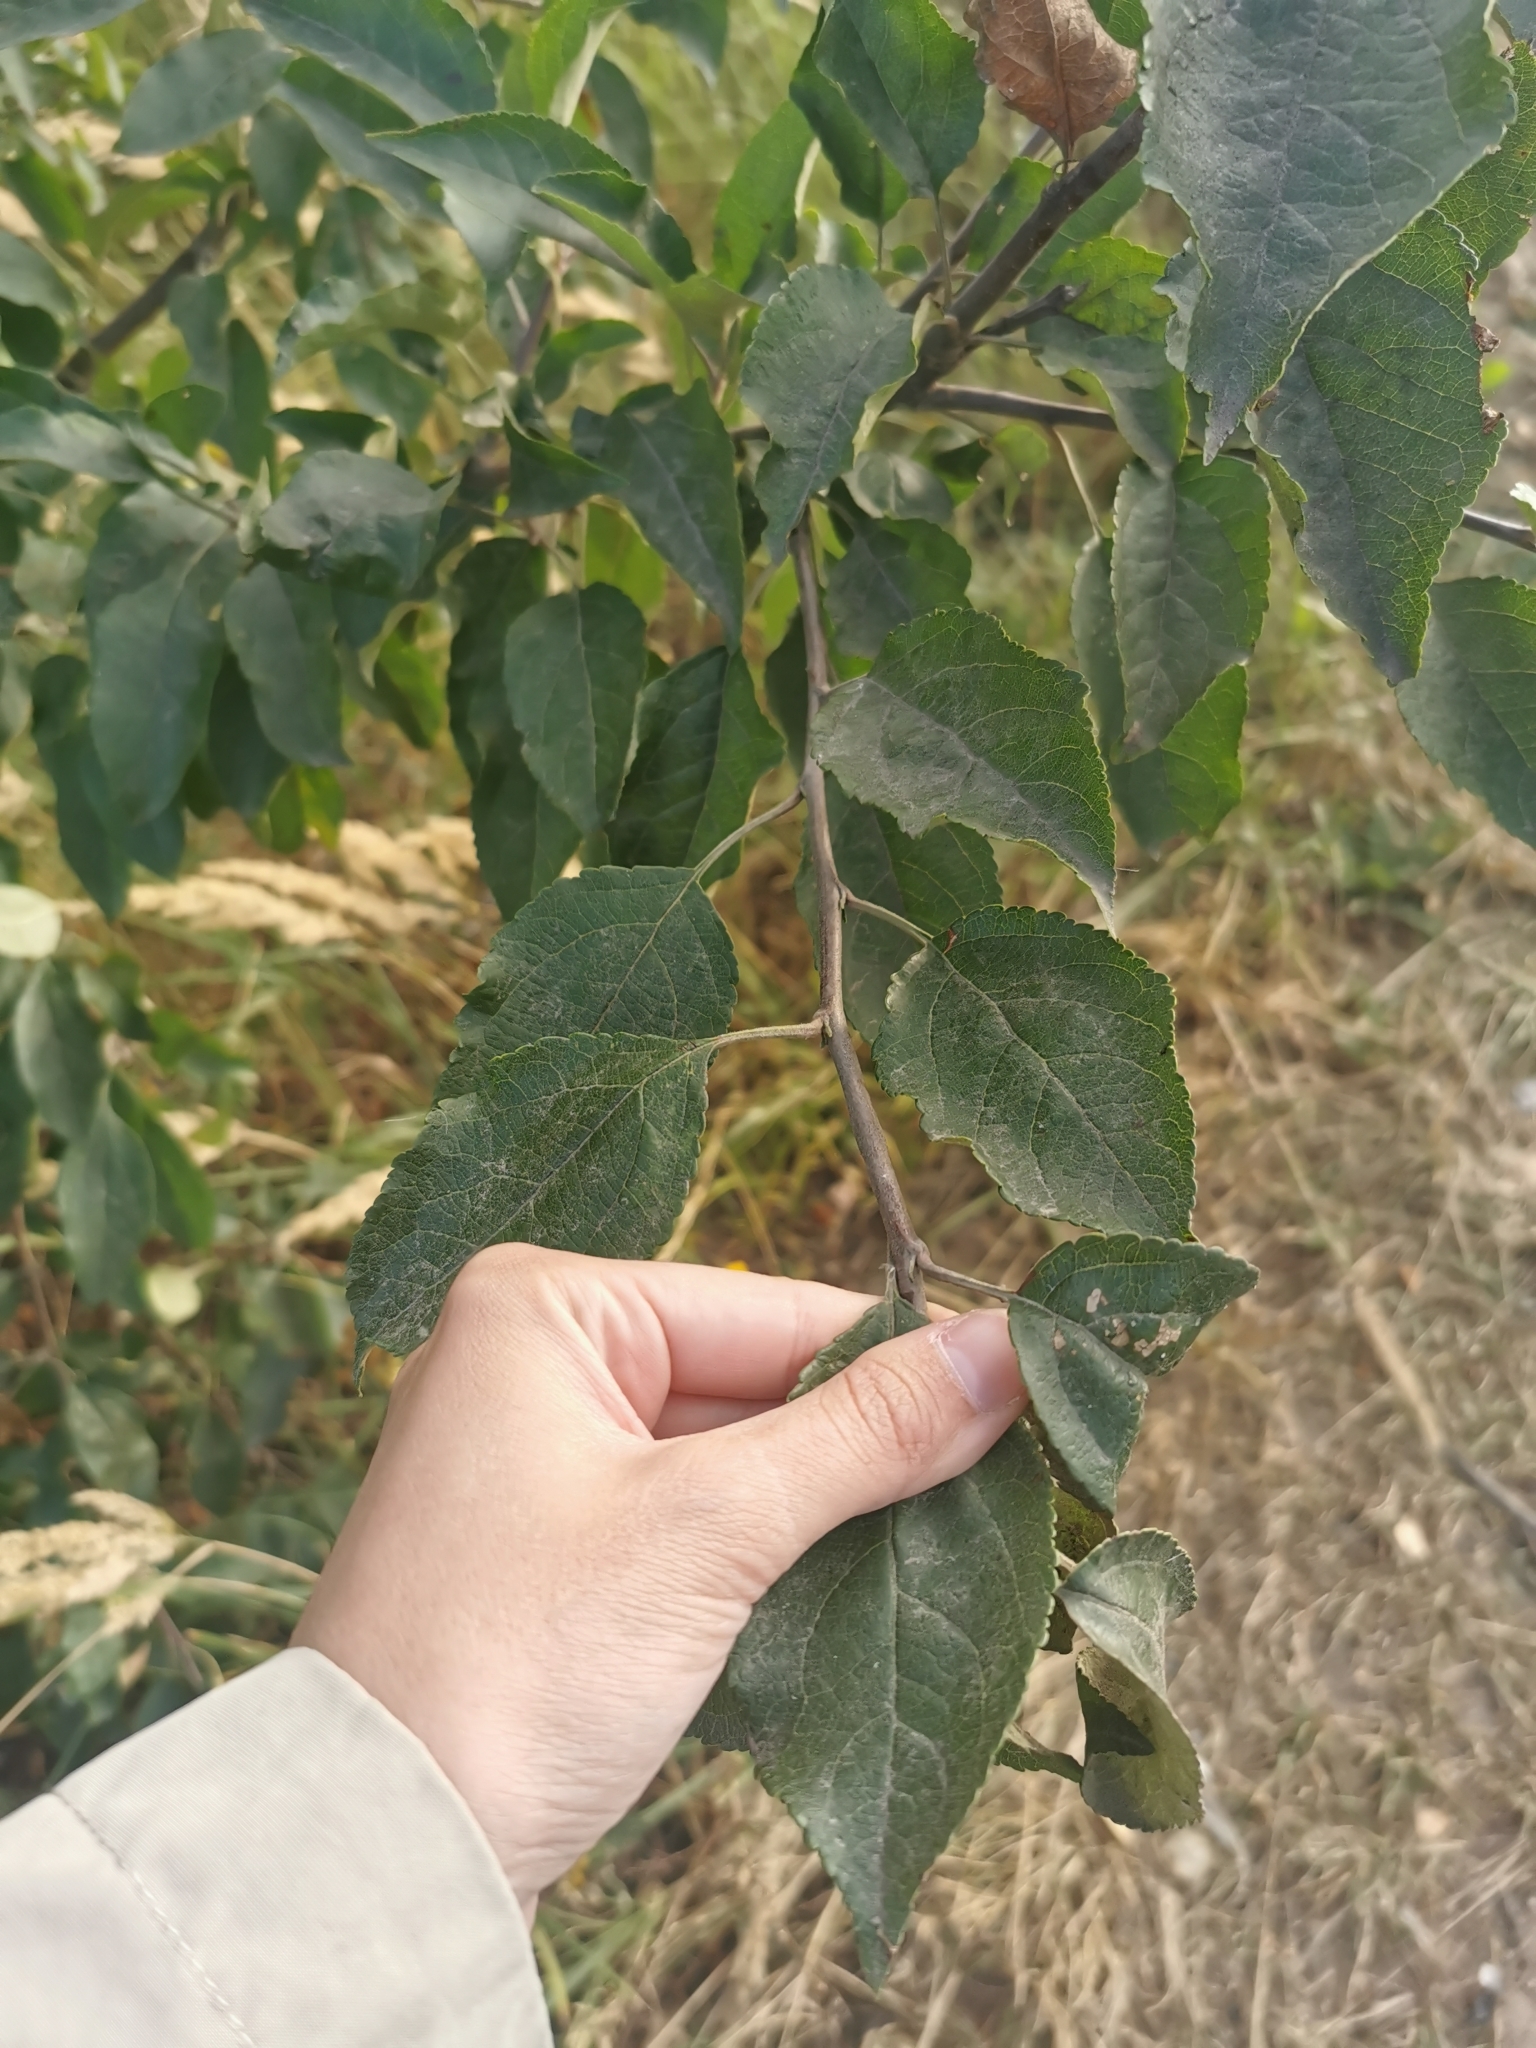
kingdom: Plantae
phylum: Tracheophyta
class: Magnoliopsida
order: Rosales
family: Rosaceae
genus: Malus
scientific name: Malus domestica
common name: Apple
